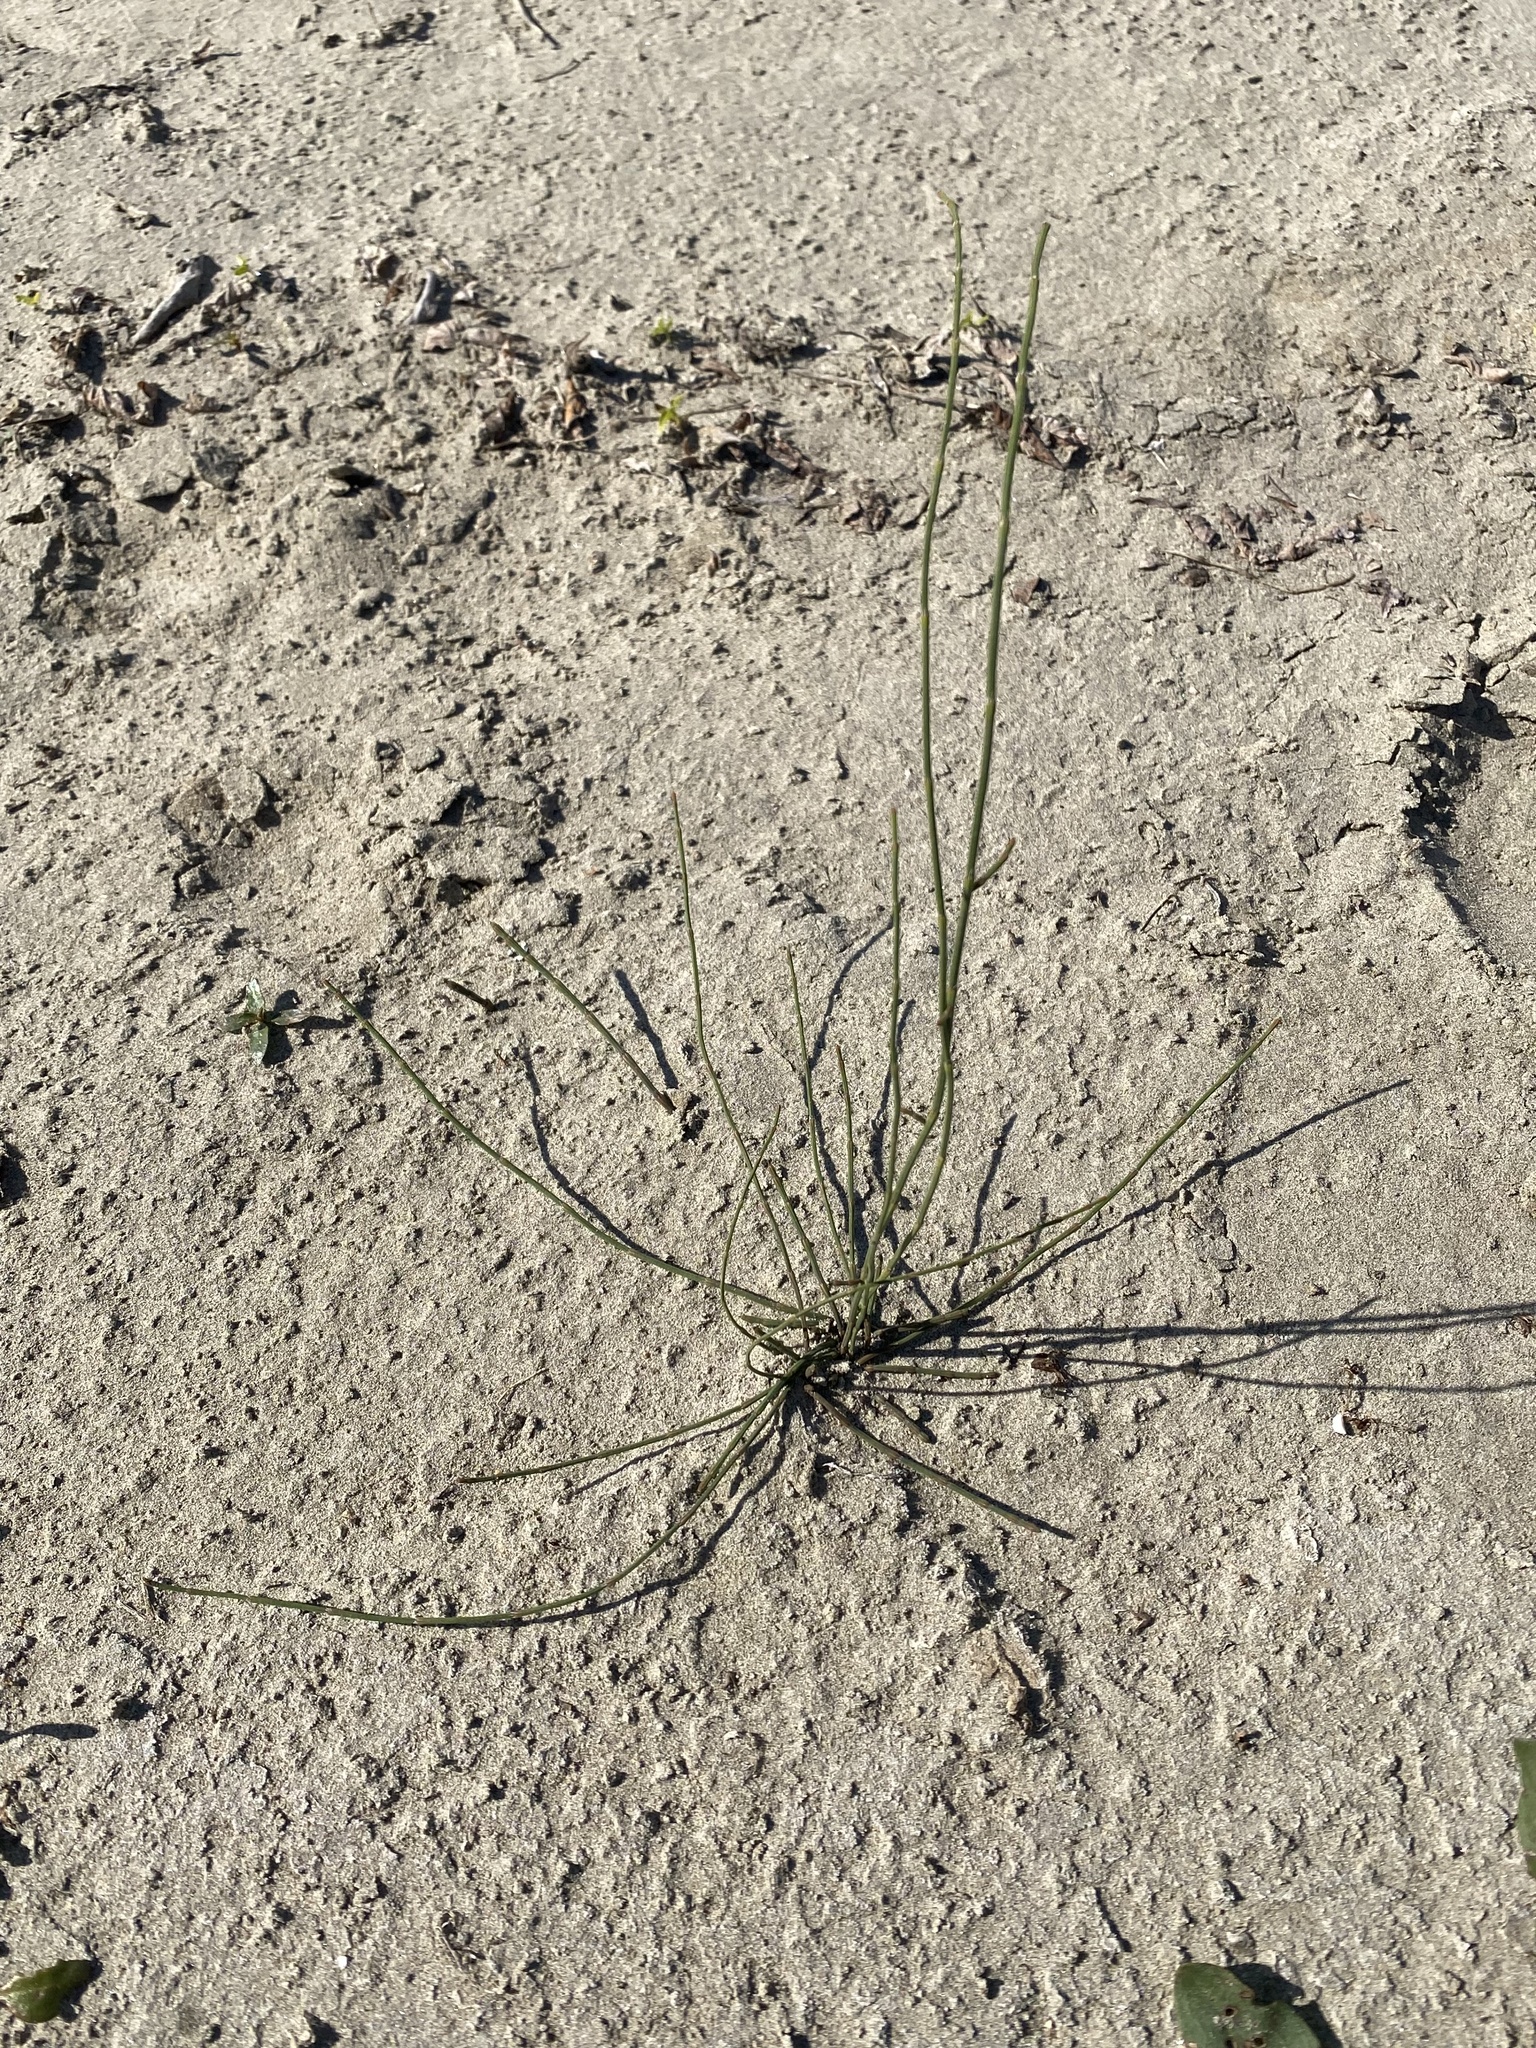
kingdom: Plantae
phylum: Tracheophyta
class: Polypodiopsida
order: Equisetales
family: Equisetaceae
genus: Equisetum
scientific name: Equisetum ramosissimum
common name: Branched horsetail
